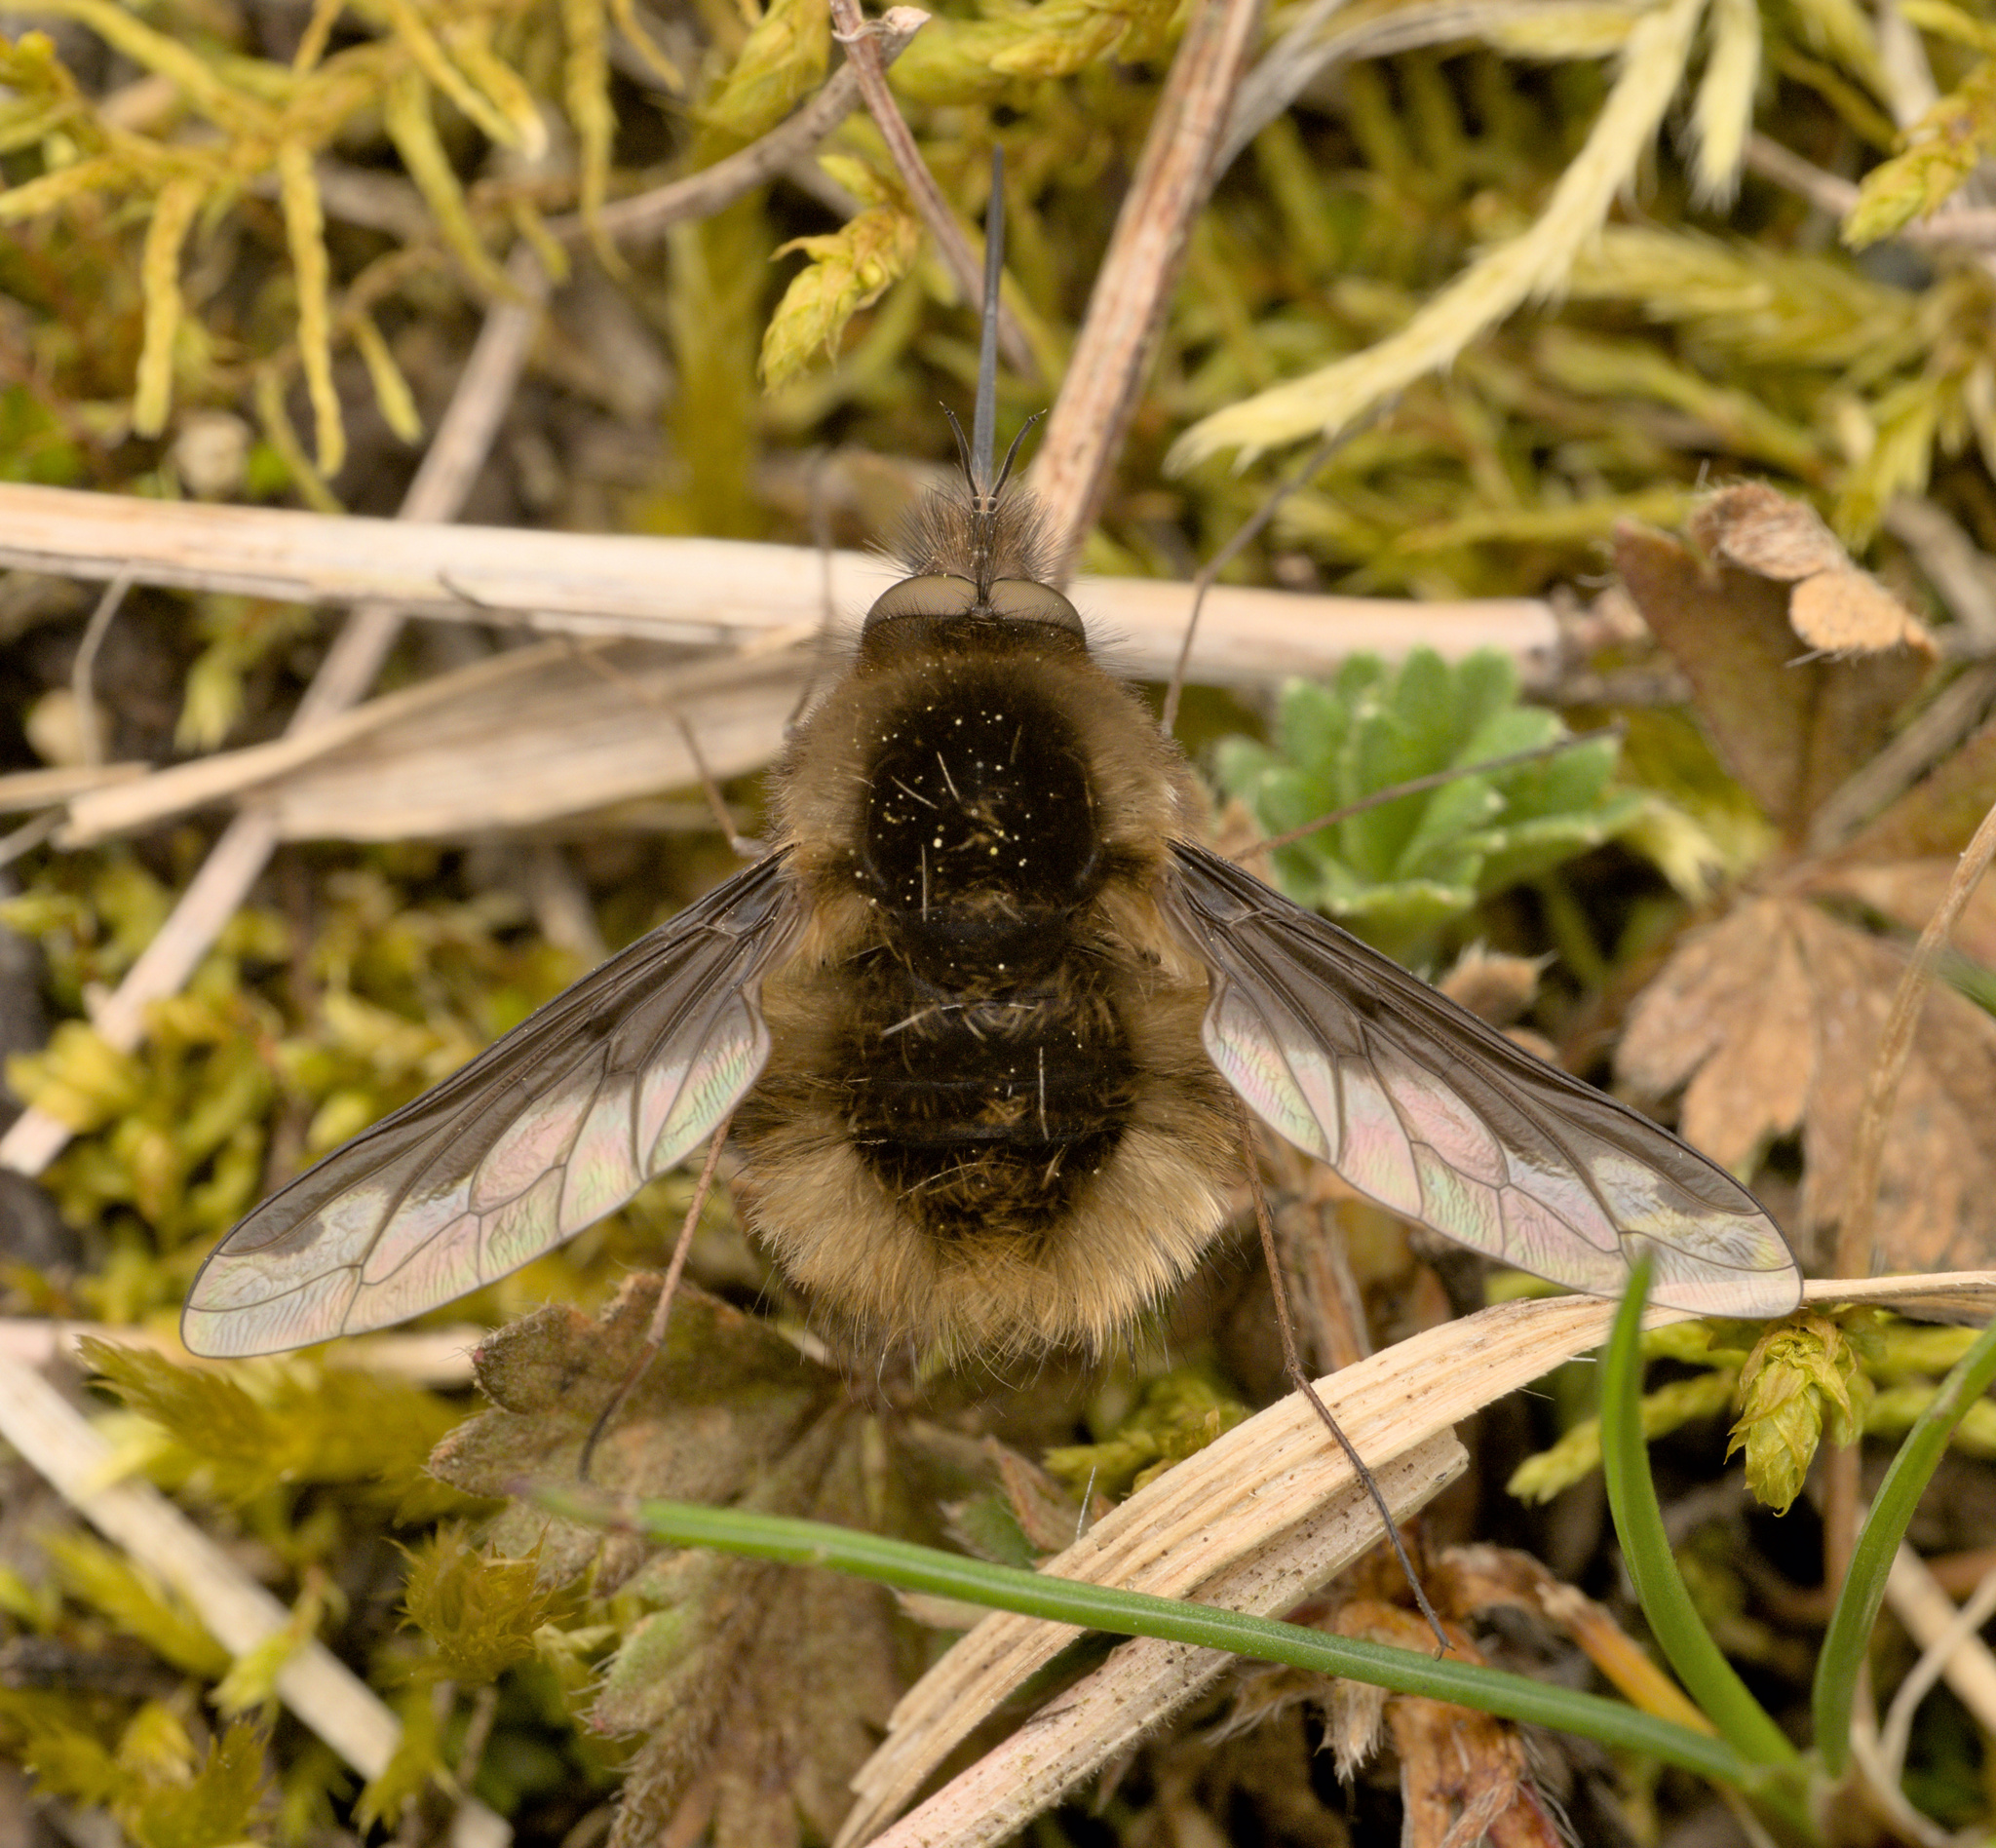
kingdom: Animalia
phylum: Arthropoda
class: Insecta
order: Diptera
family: Bombyliidae
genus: Bombylius
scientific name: Bombylius major
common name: Bee fly
